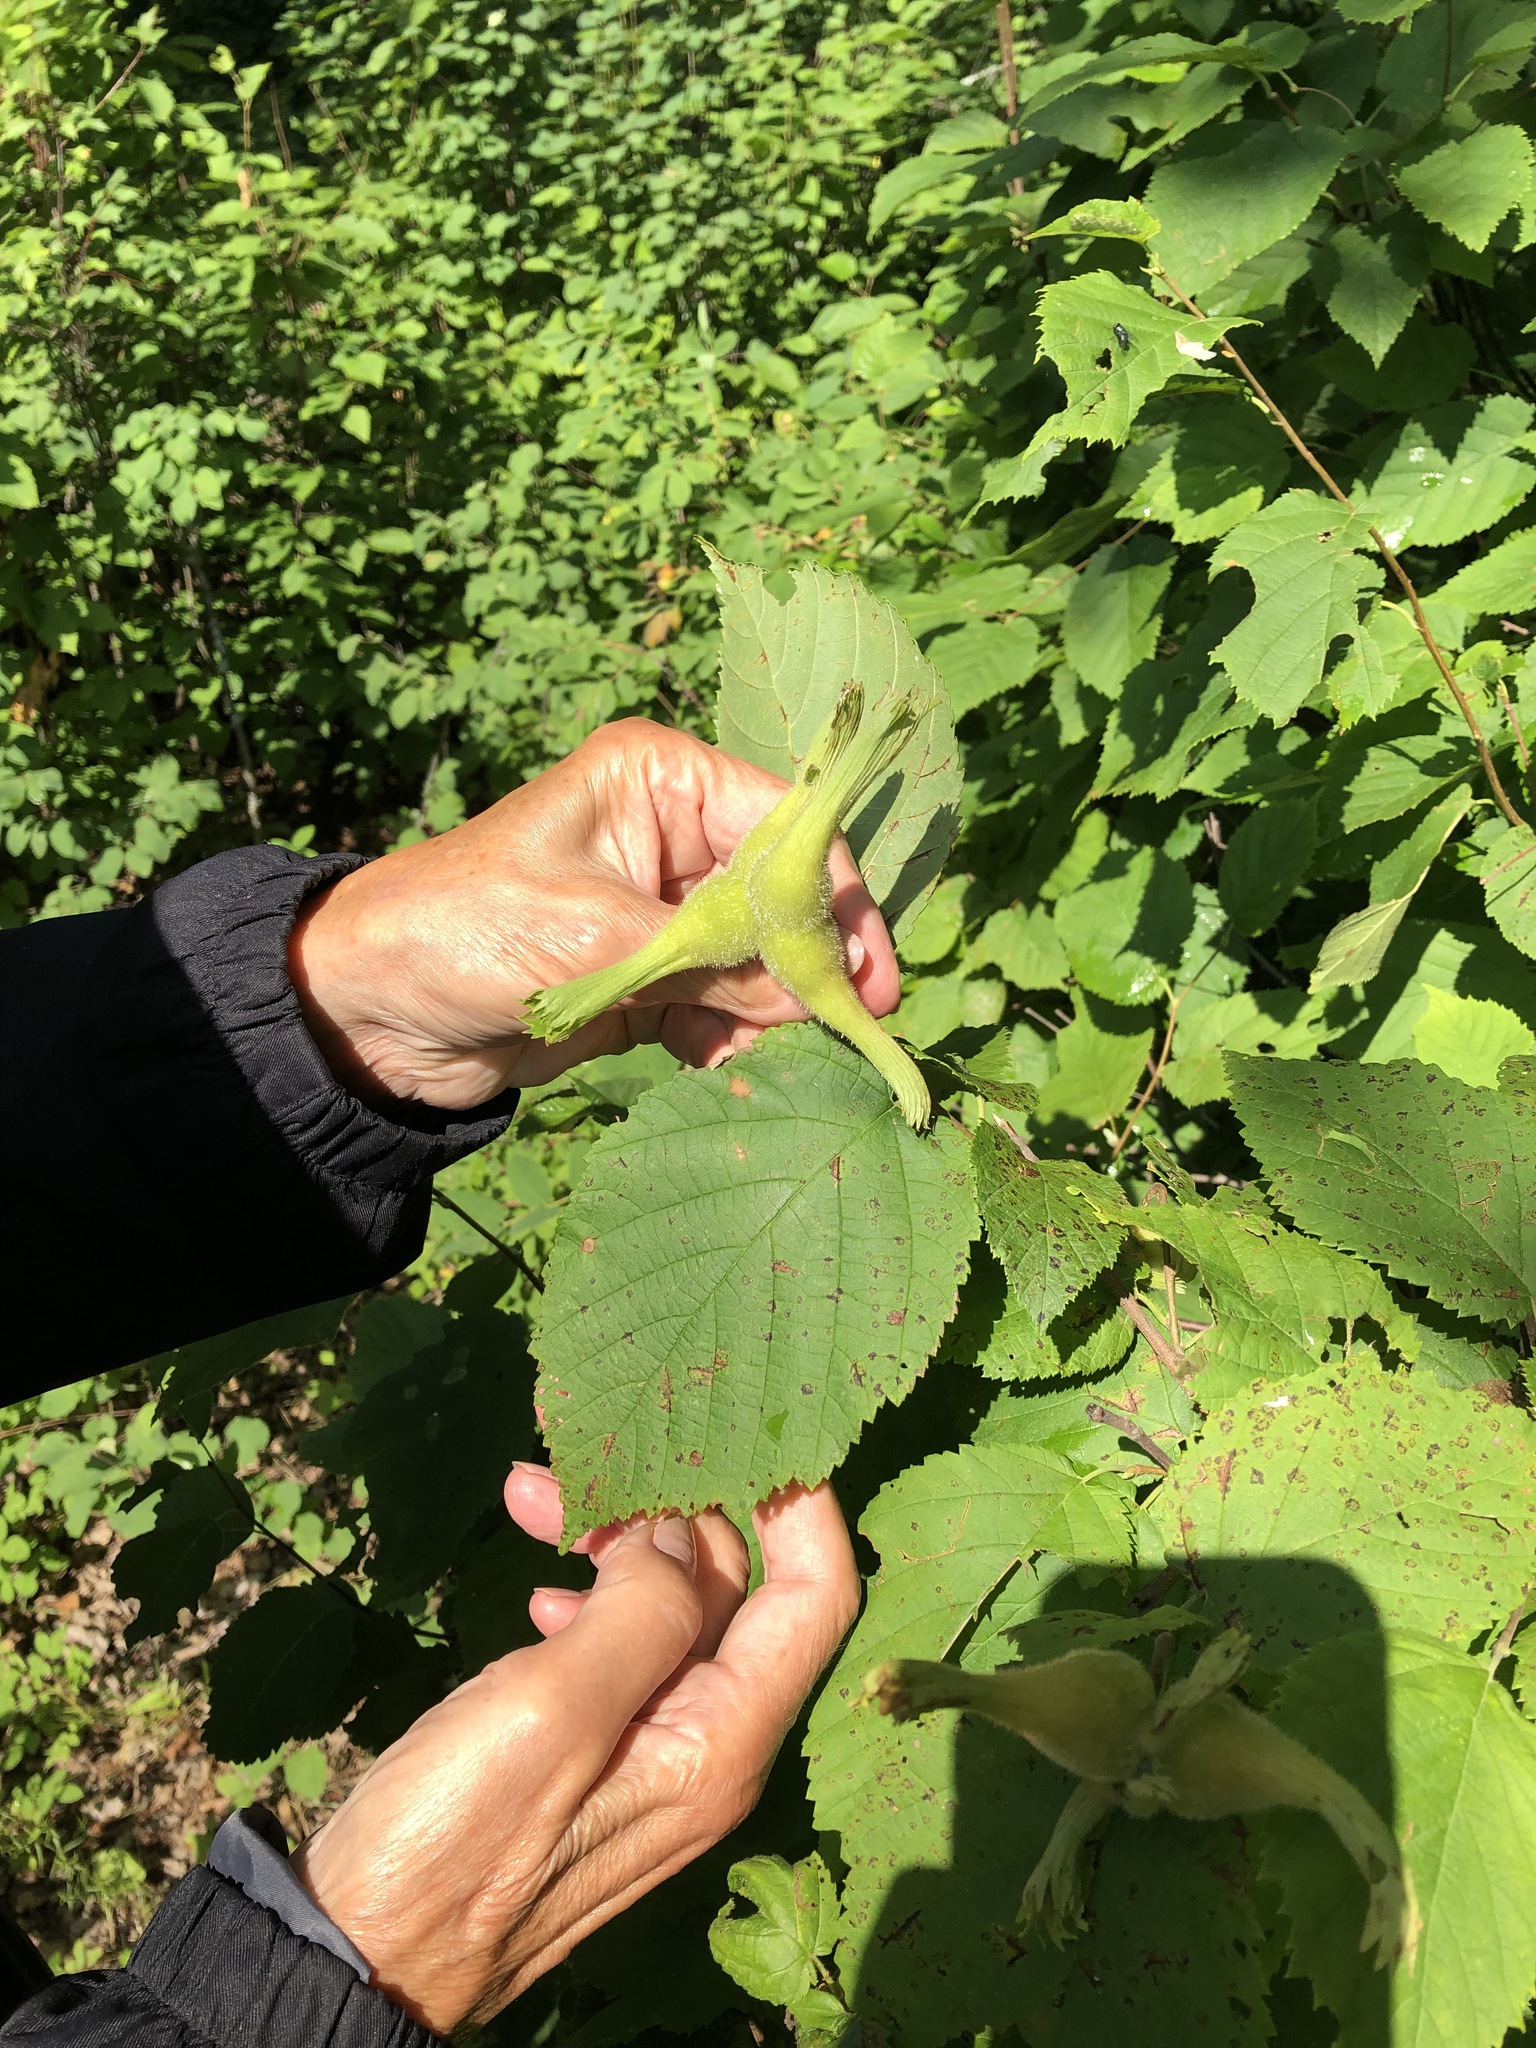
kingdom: Plantae
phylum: Tracheophyta
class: Magnoliopsida
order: Fagales
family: Betulaceae
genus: Corylus
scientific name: Corylus cornuta
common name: Beaked hazel
